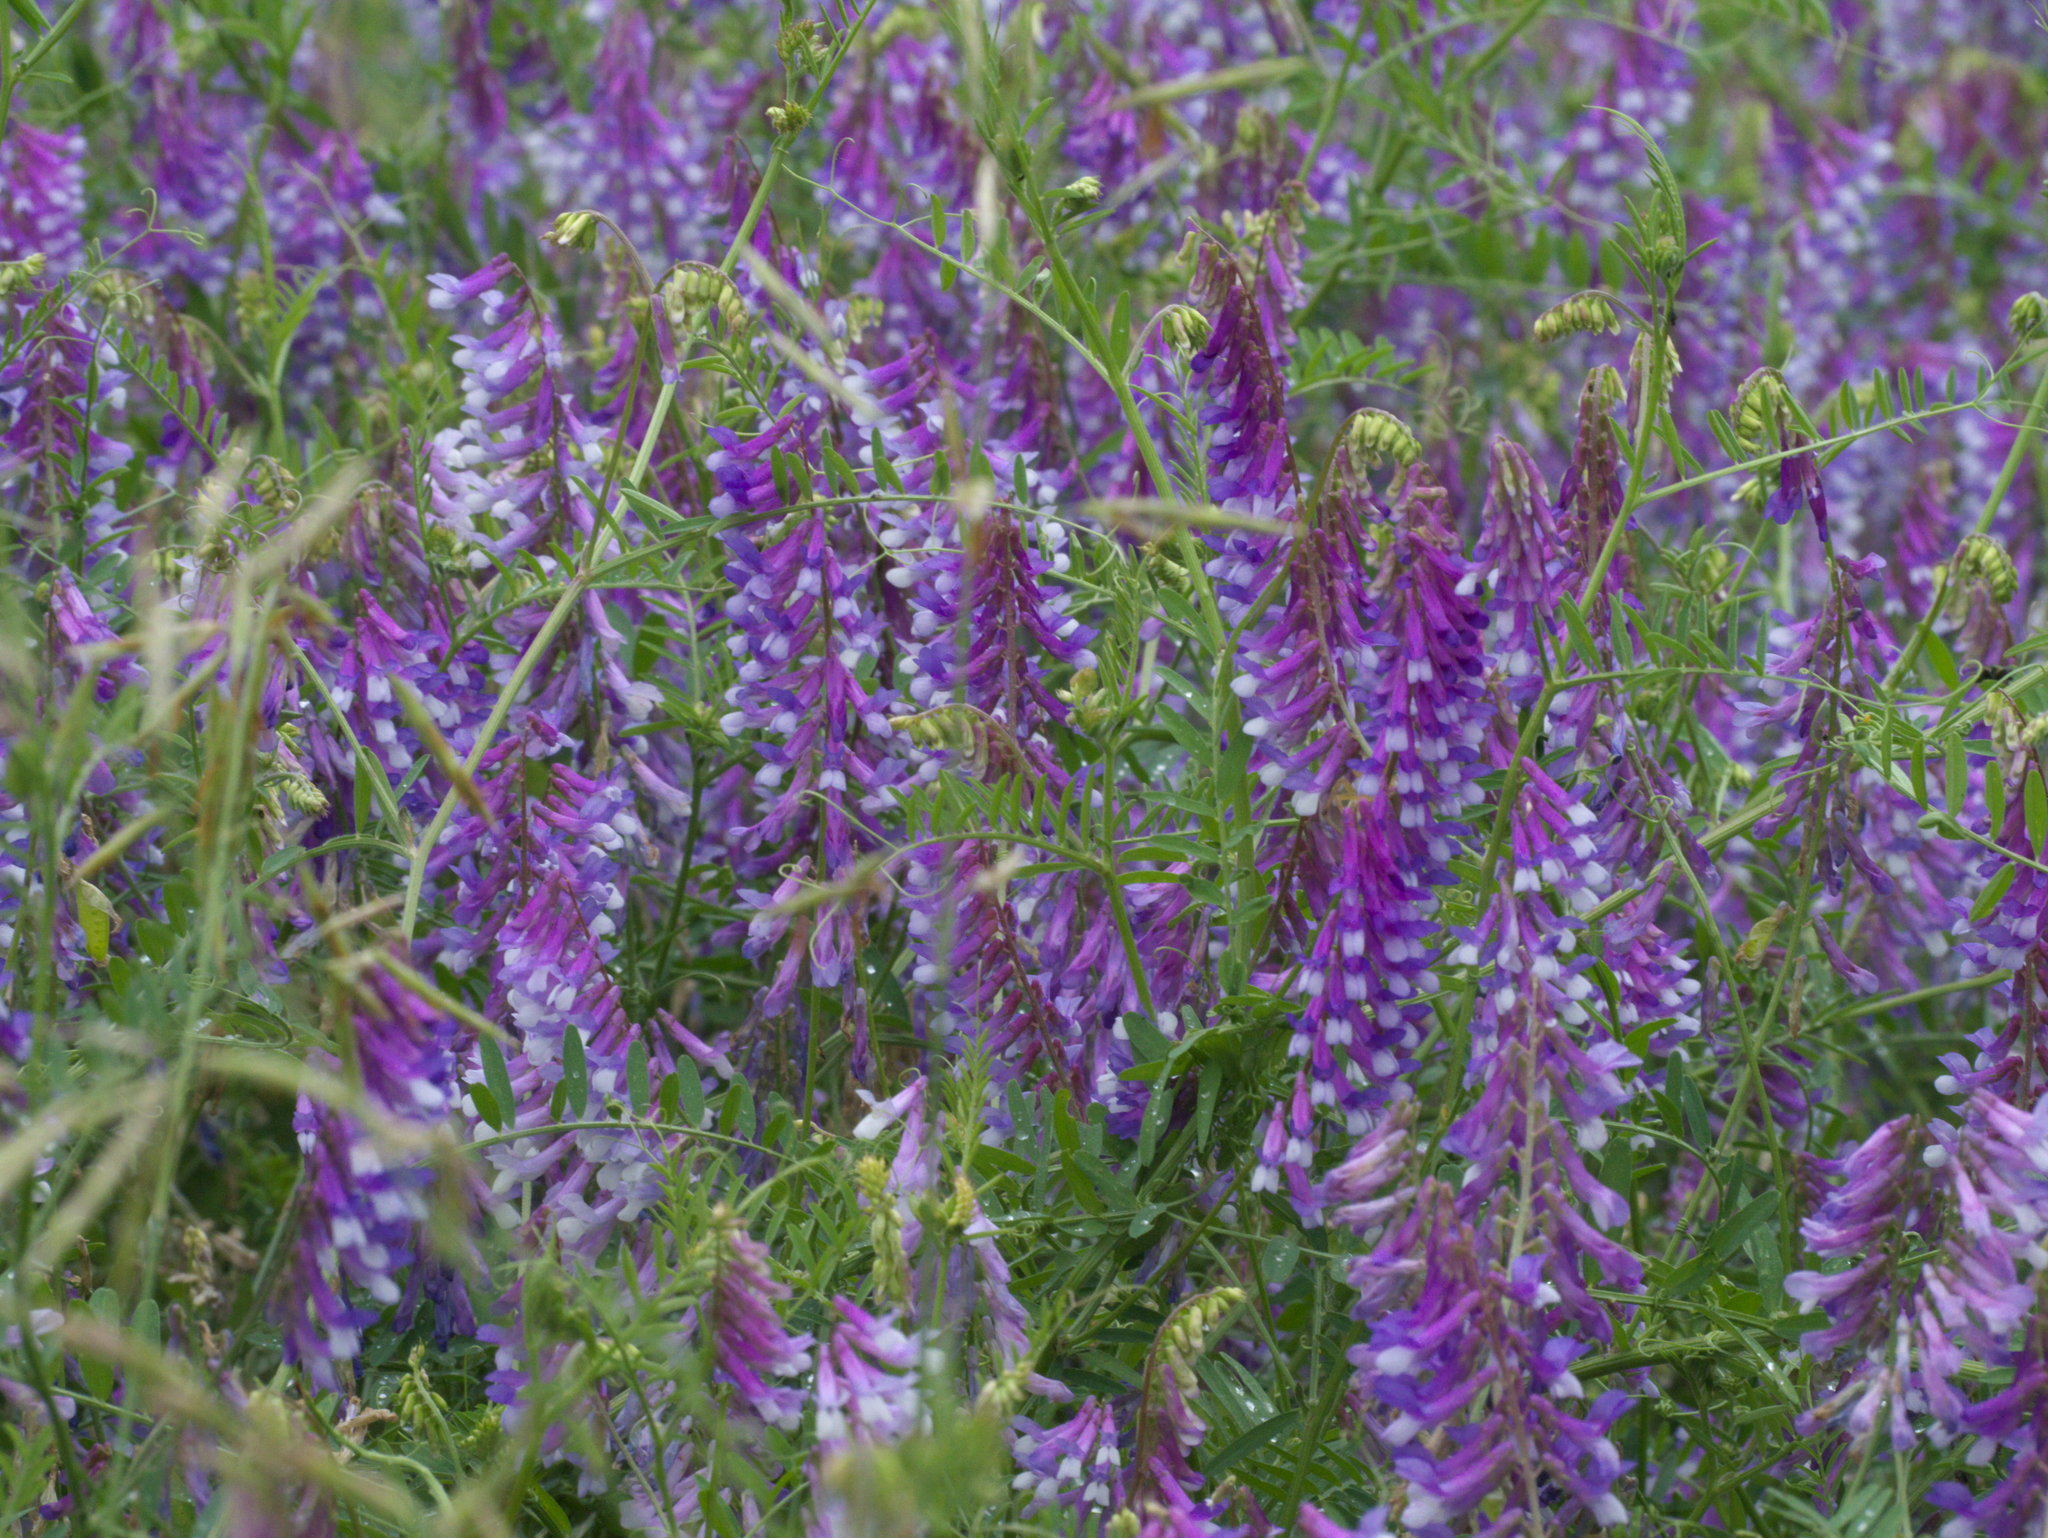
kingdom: Plantae
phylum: Tracheophyta
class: Magnoliopsida
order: Fabales
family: Fabaceae
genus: Vicia
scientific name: Vicia villosa
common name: Fodder vetch
